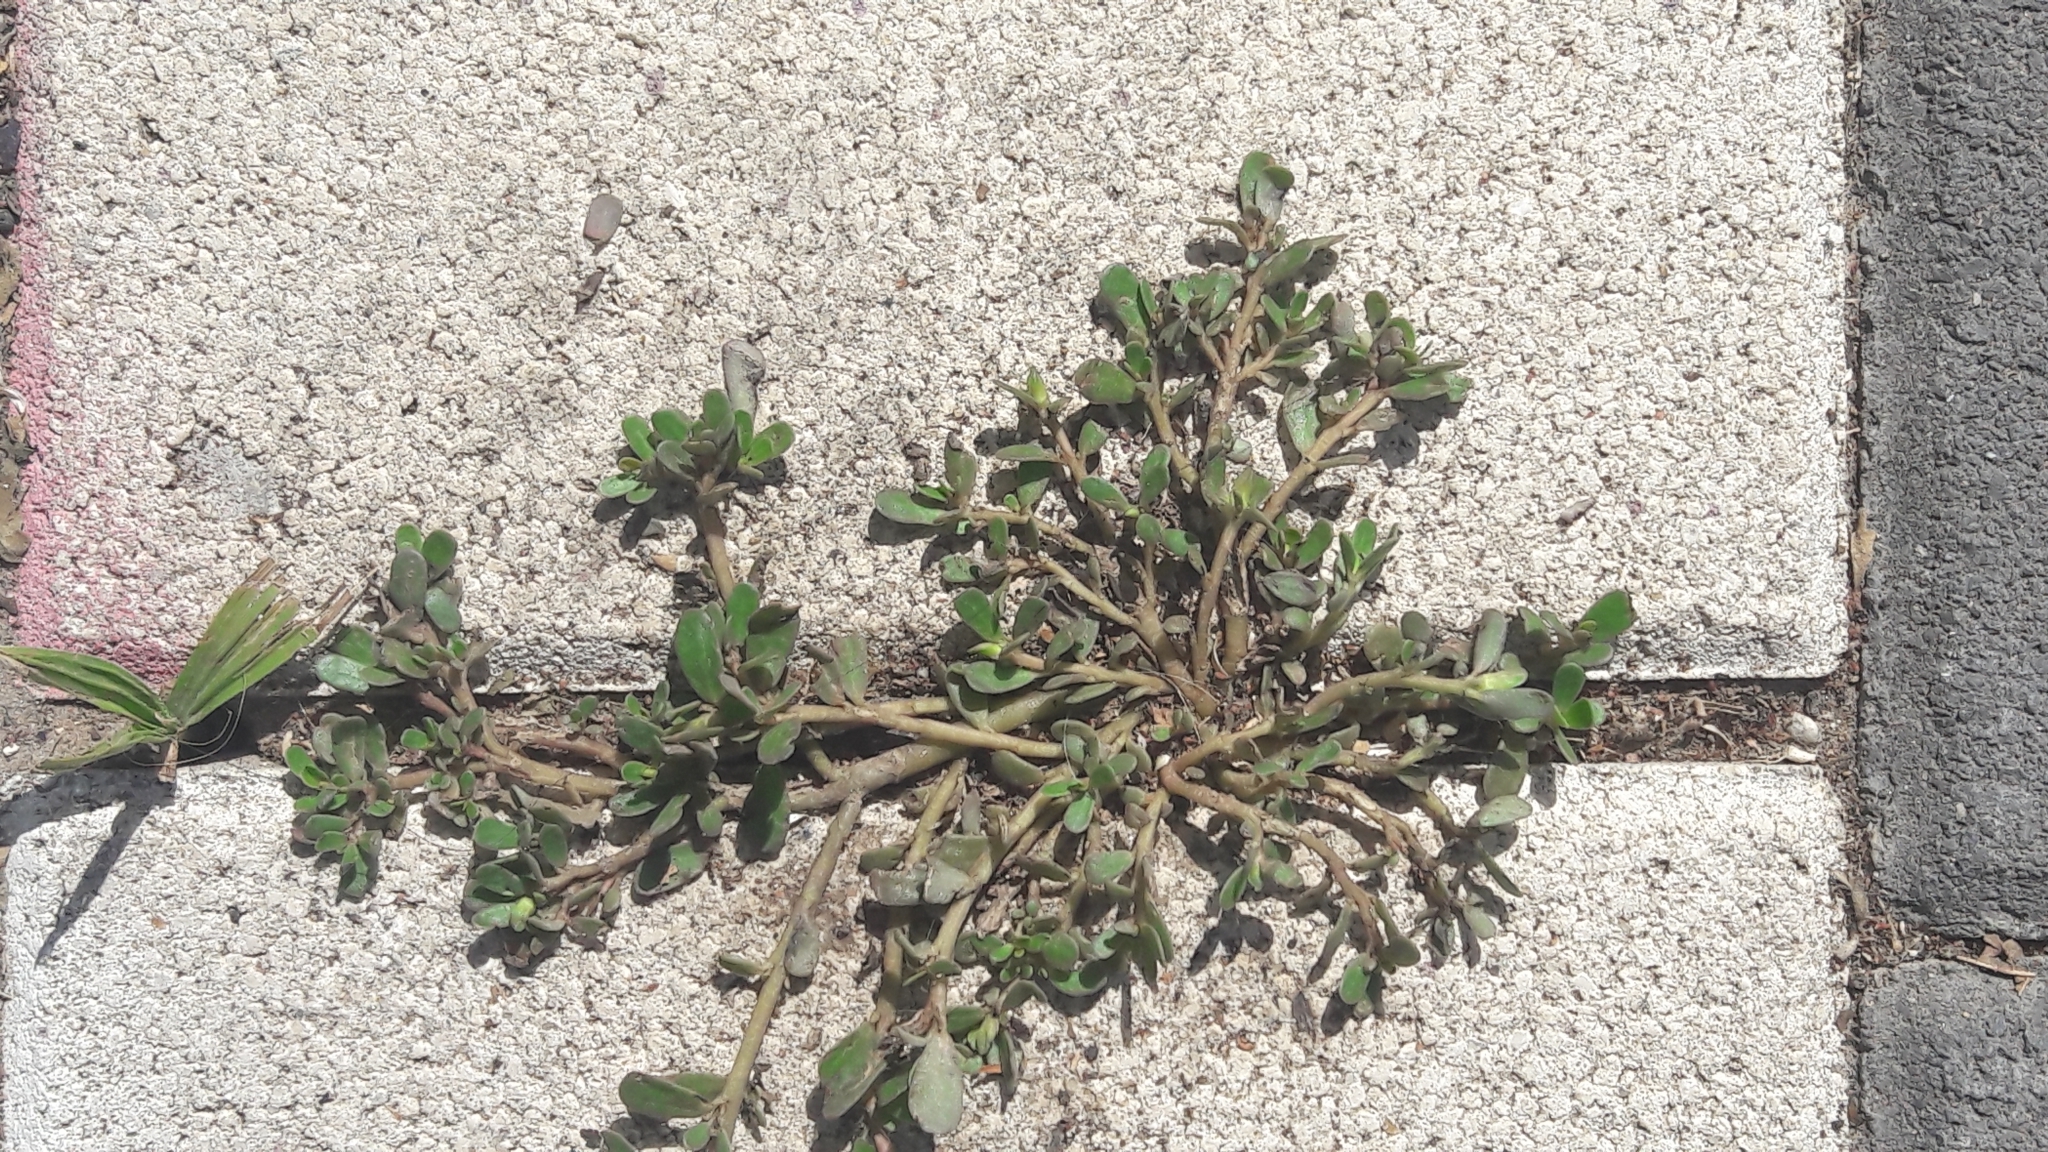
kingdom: Plantae
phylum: Tracheophyta
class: Magnoliopsida
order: Caryophyllales
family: Portulacaceae
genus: Portulaca
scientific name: Portulaca oleracea
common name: Common purslane
